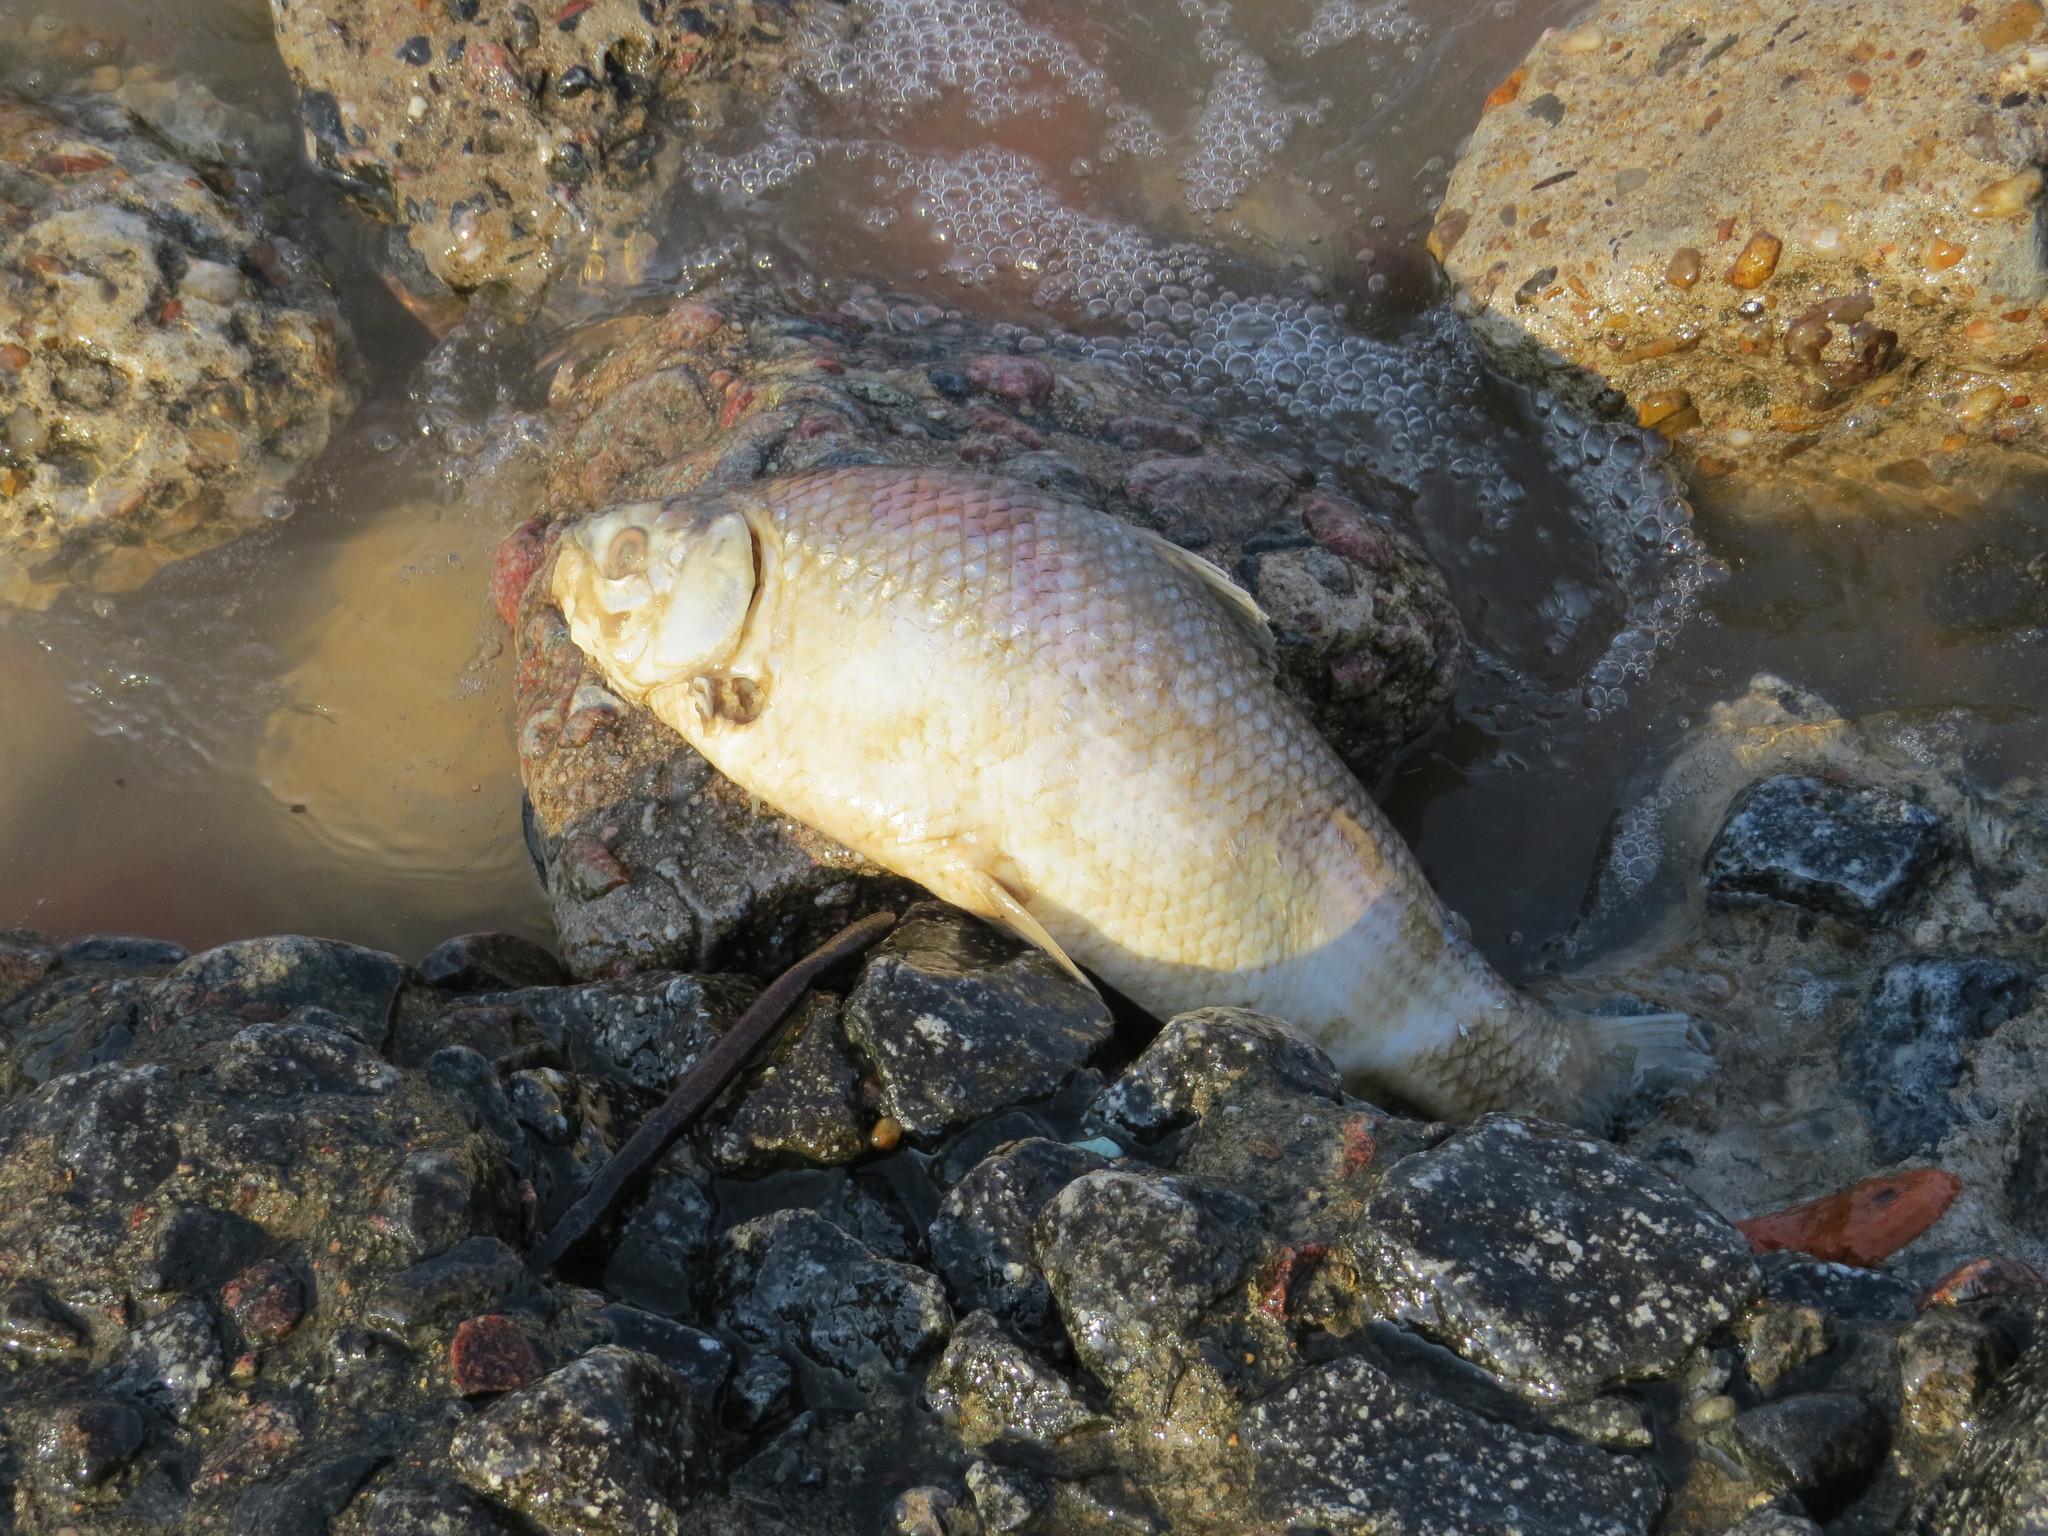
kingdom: Animalia
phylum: Chordata
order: Characiformes
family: Prochilodontidae
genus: Prochilodus
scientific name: Prochilodus lineatus
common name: Curimbata
